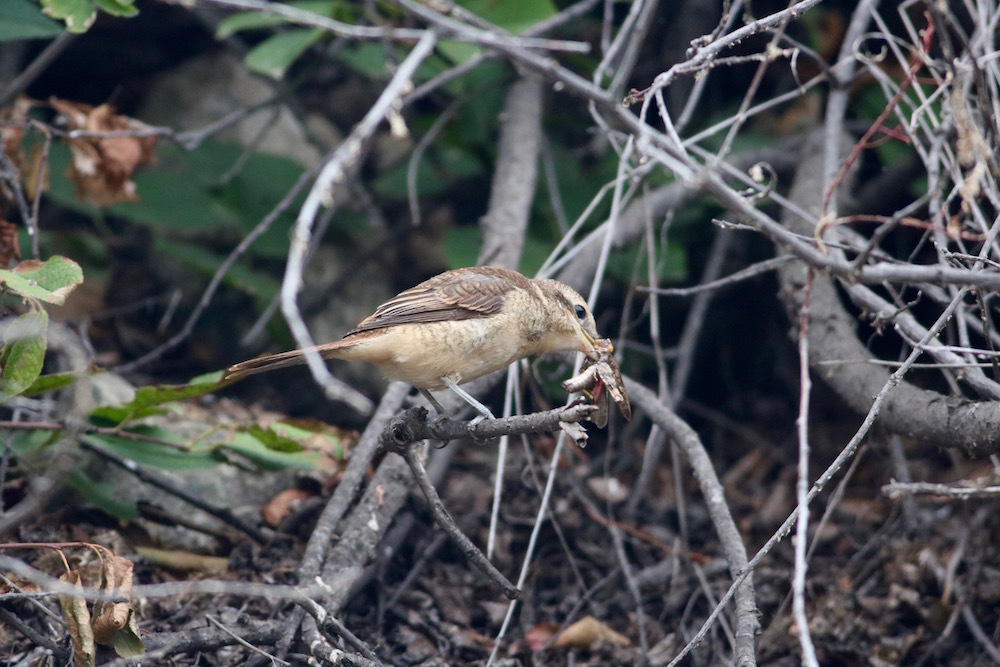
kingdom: Animalia
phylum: Chordata
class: Aves
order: Passeriformes
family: Laniidae
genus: Lanius
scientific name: Lanius cristatus
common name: Brown shrike
